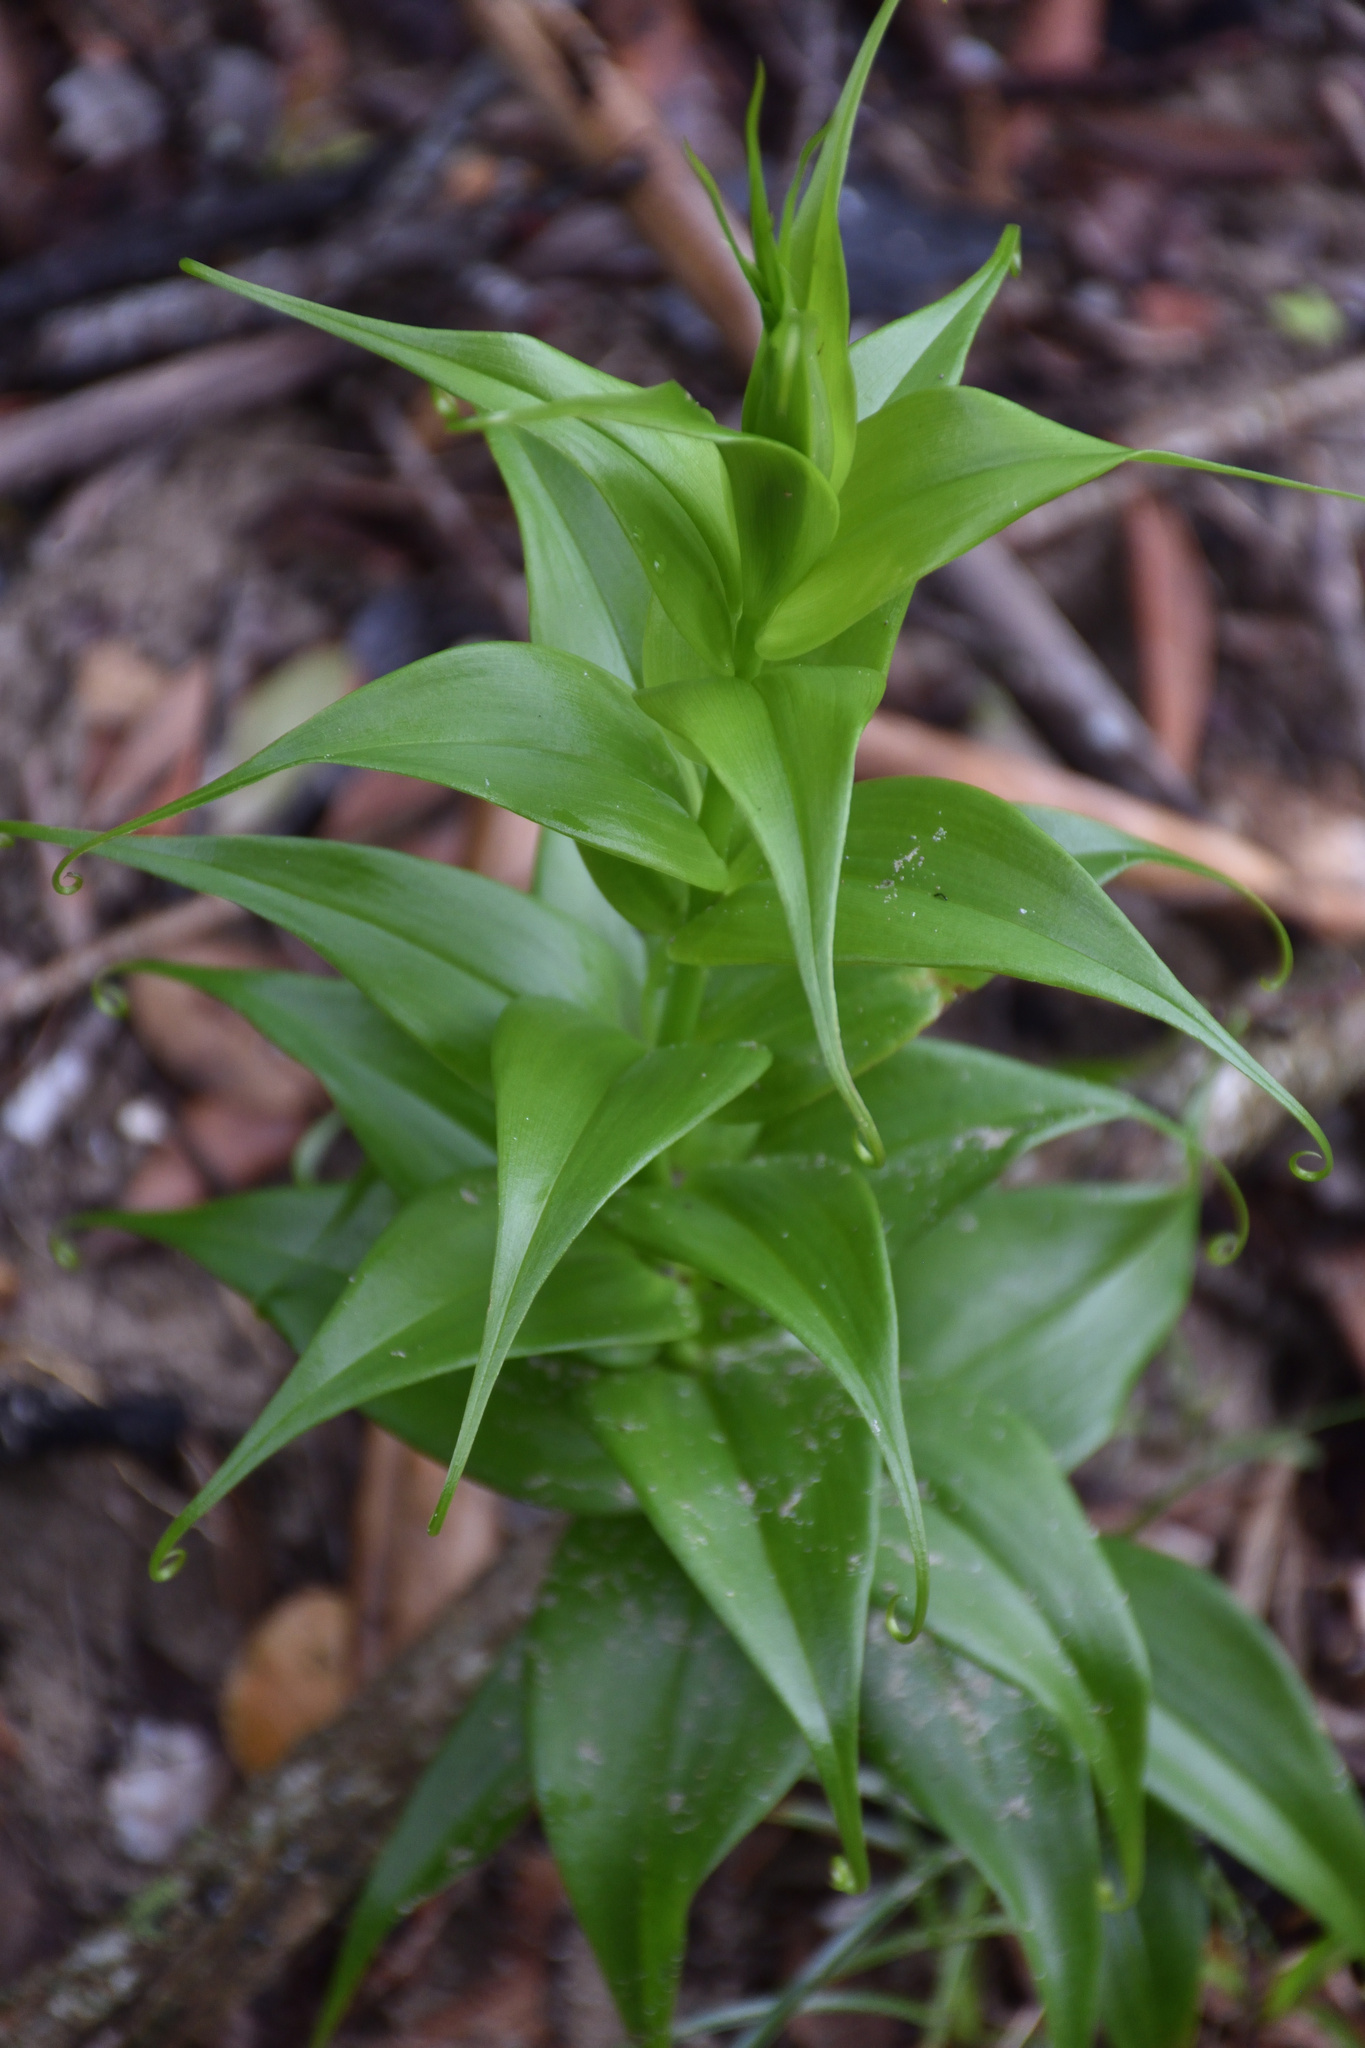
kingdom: Plantae
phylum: Tracheophyta
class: Liliopsida
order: Liliales
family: Colchicaceae
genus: Gloriosa
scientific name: Gloriosa superba
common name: Flame lily
